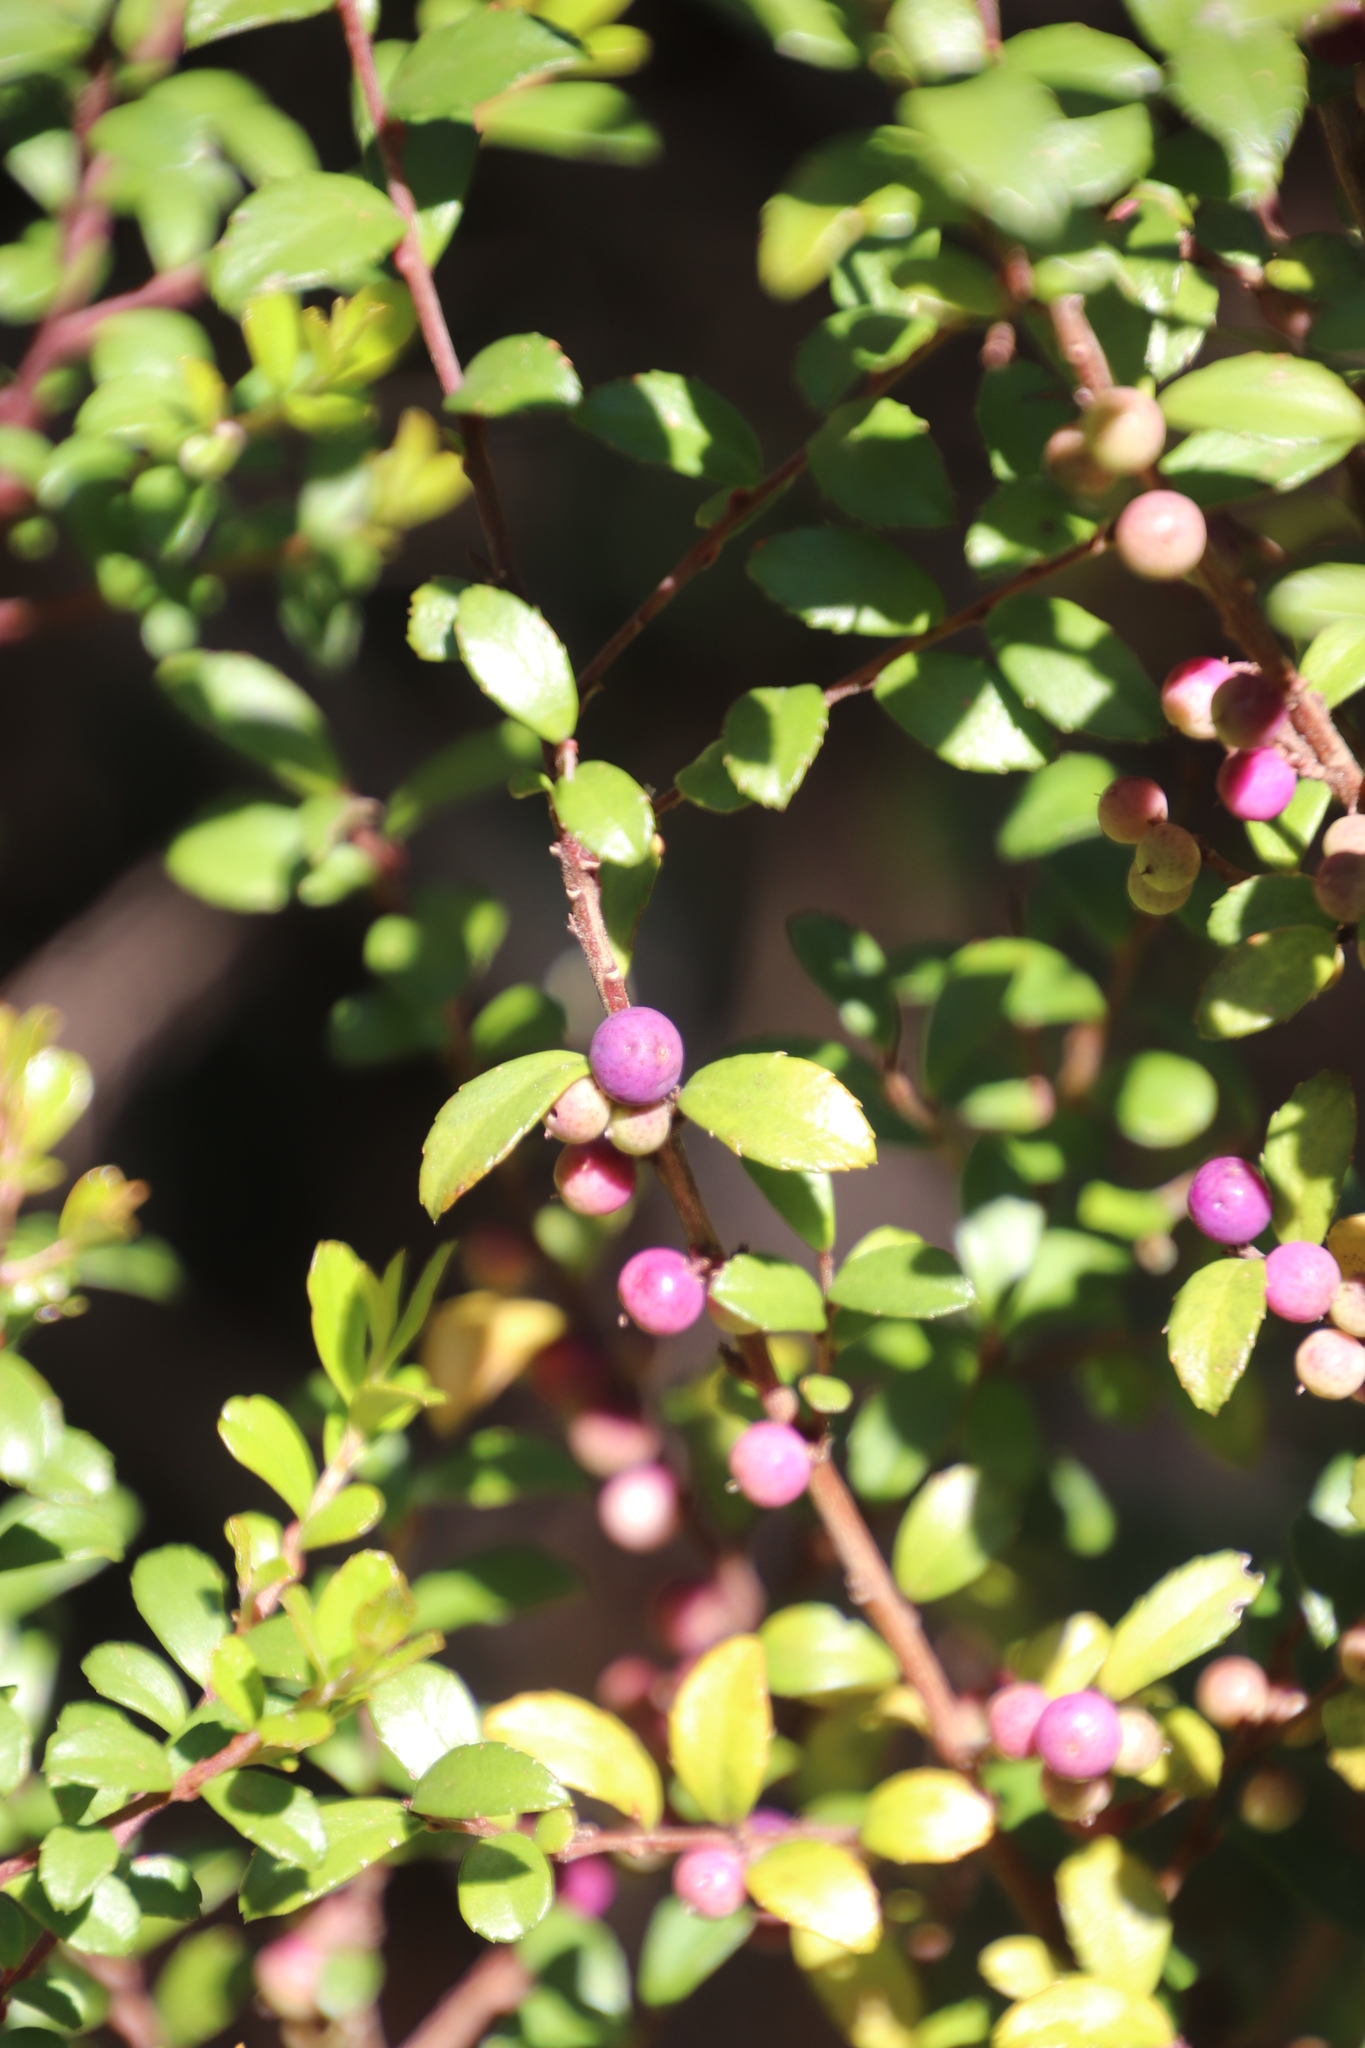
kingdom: Plantae
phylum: Tracheophyta
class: Magnoliopsida
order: Ericales
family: Primulaceae
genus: Myrsine
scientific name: Myrsine africana
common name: African-boxwood
